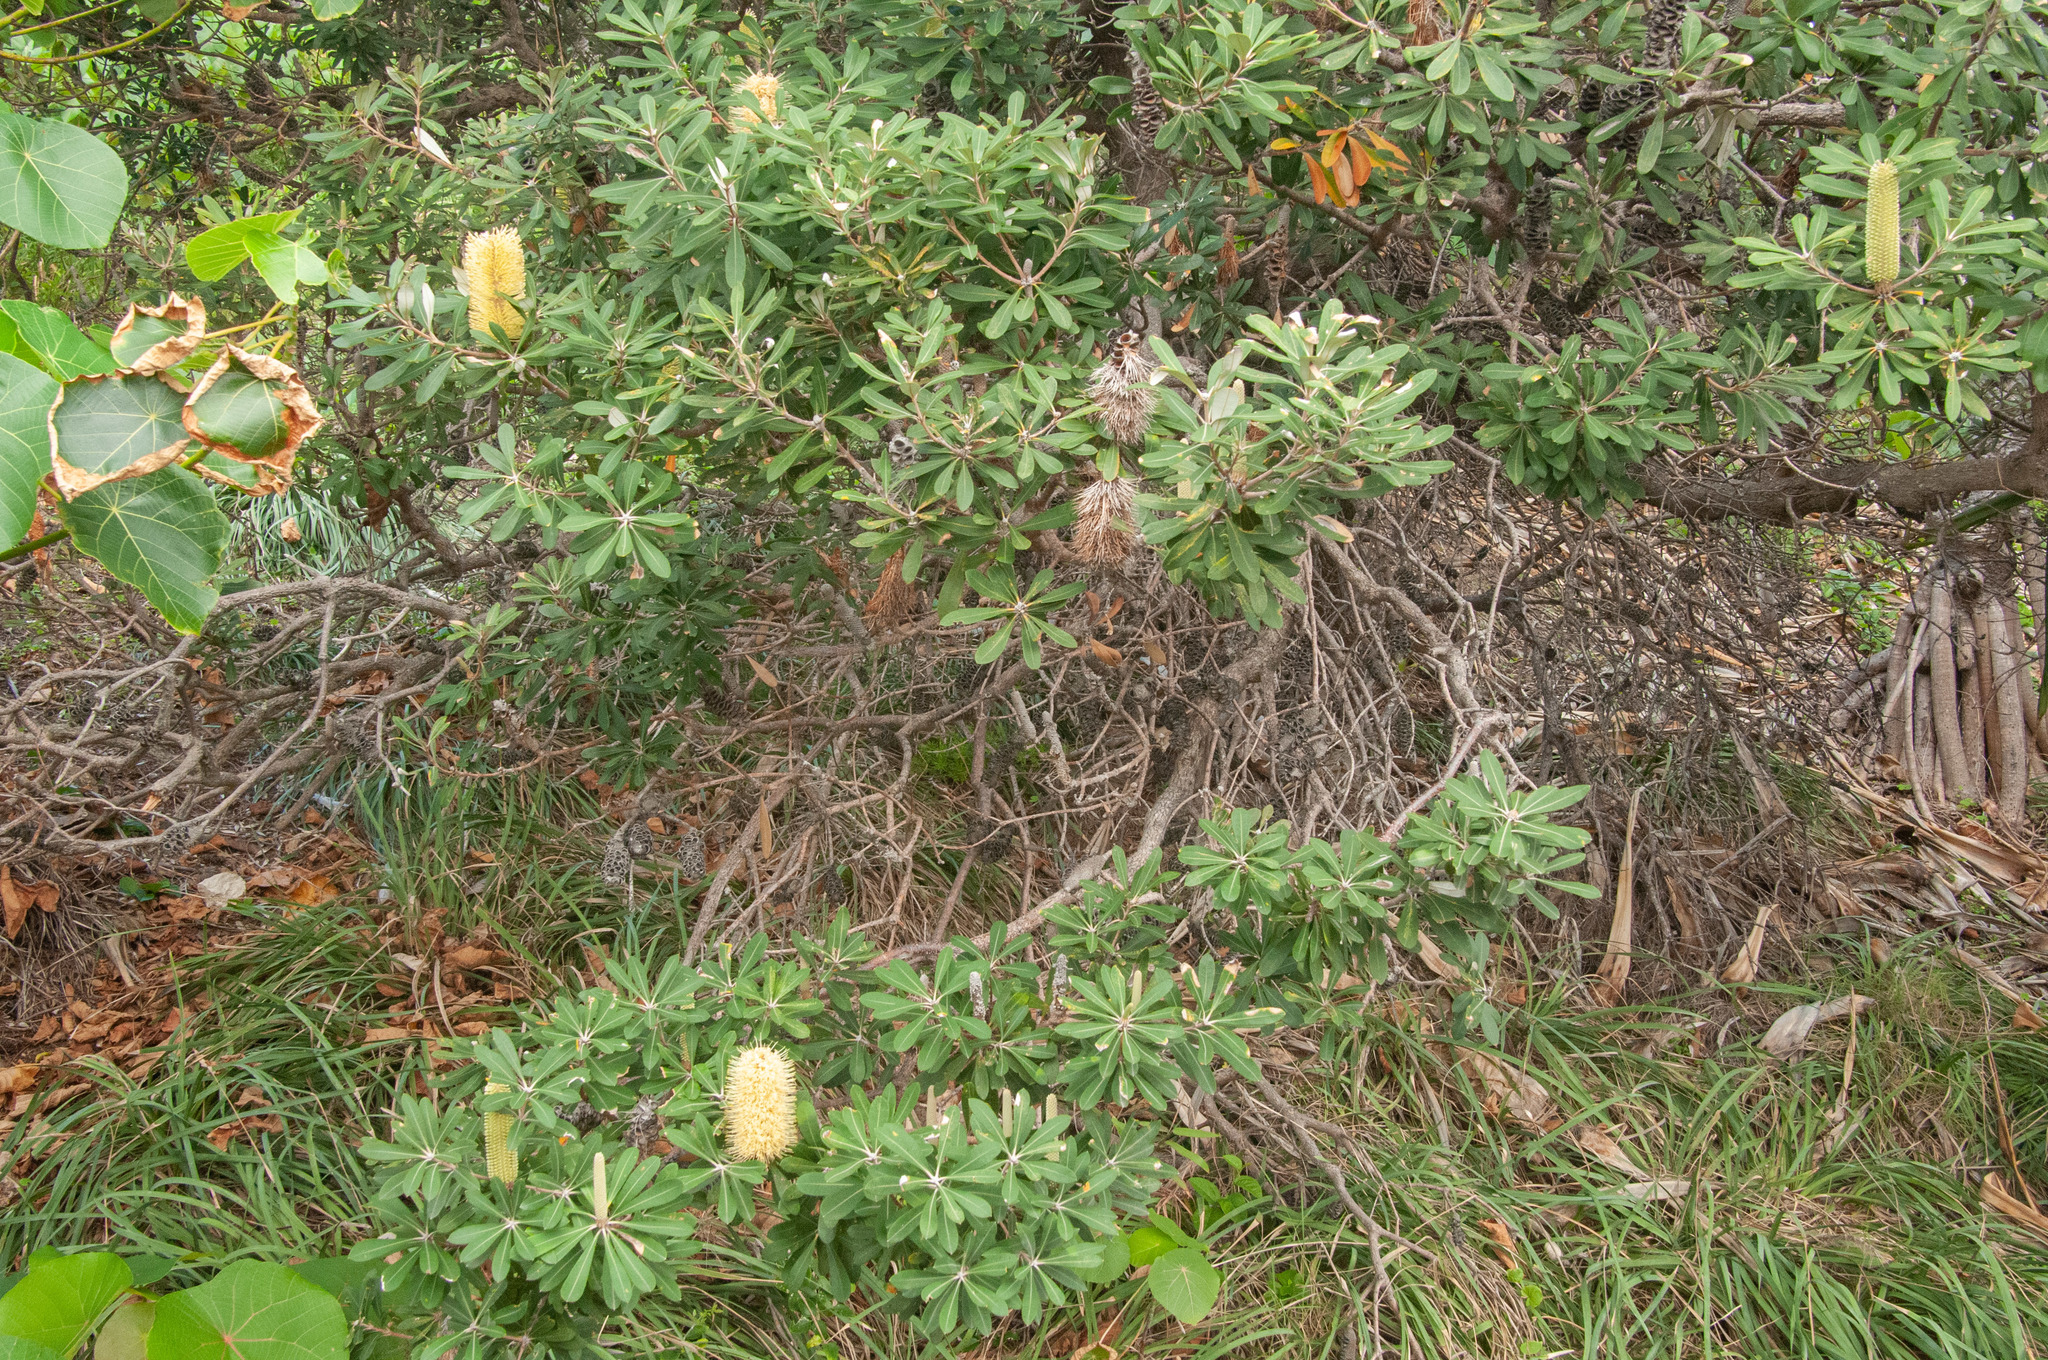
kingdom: Plantae
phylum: Tracheophyta
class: Magnoliopsida
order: Proteales
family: Proteaceae
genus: Banksia
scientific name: Banksia integrifolia
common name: White-honeysuckle
